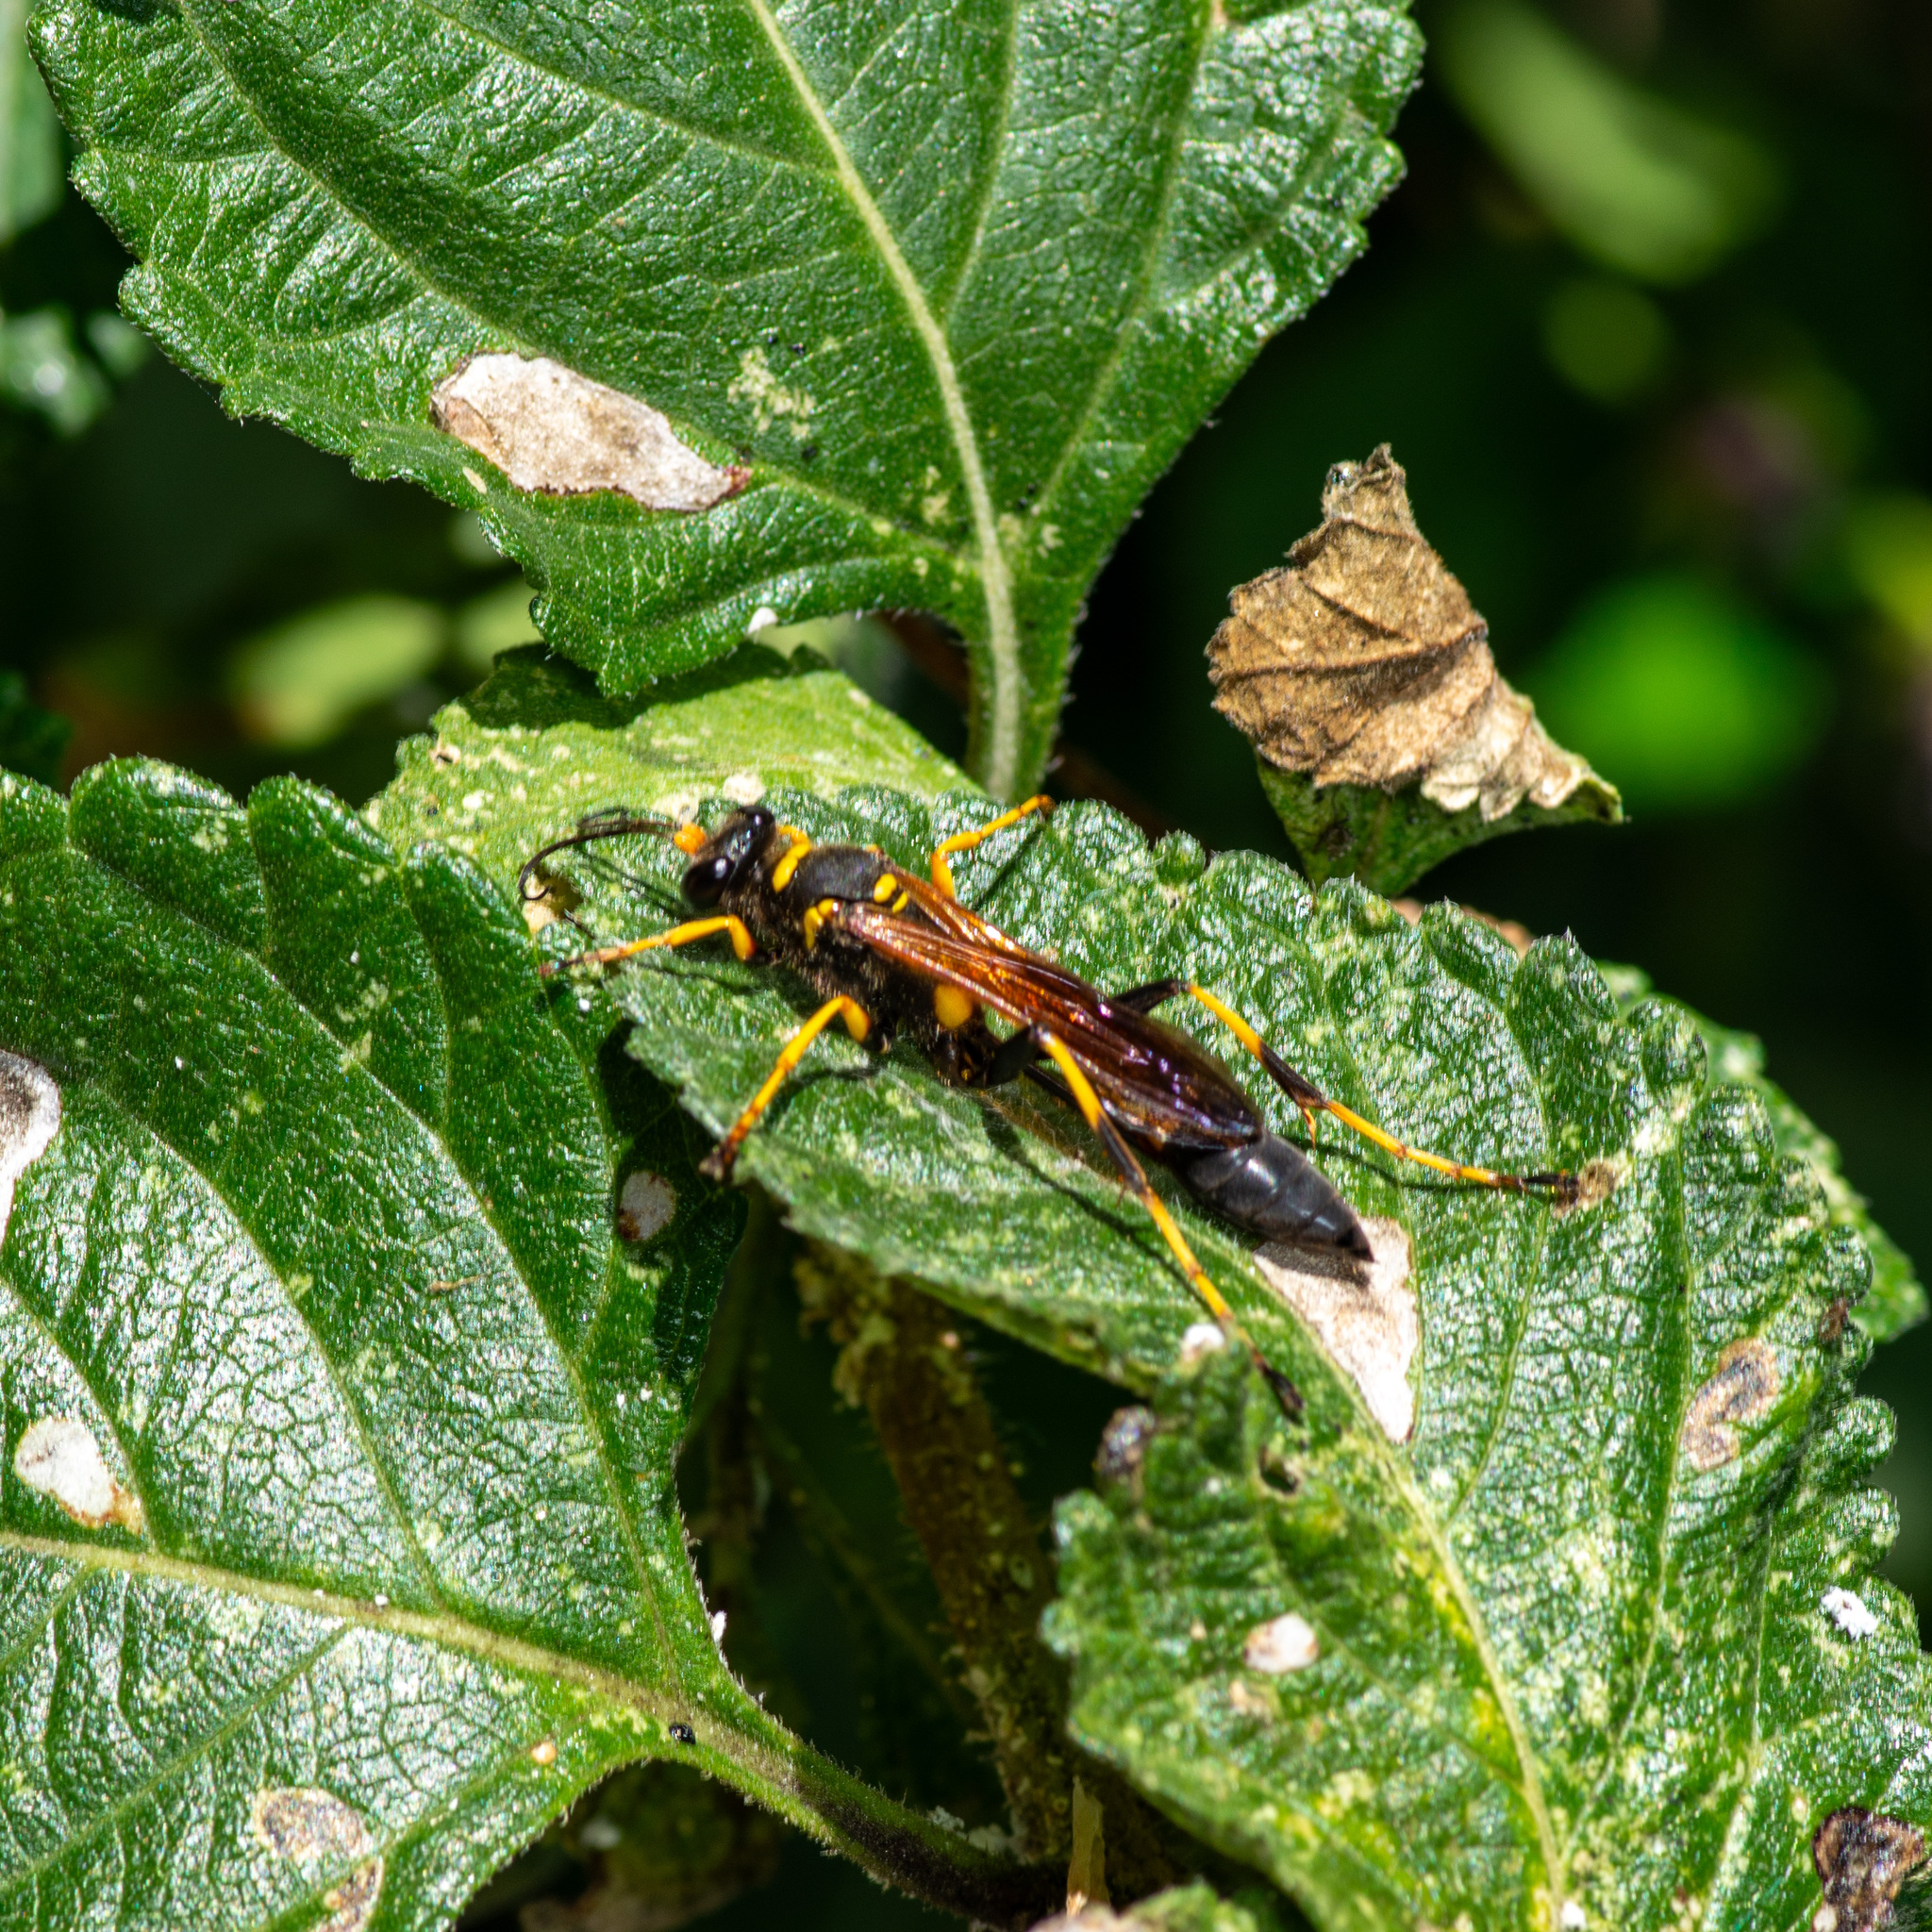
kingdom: Animalia
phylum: Arthropoda
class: Insecta
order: Hymenoptera
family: Sphecidae
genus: Sceliphron
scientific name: Sceliphron caementarium
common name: Mud dauber
